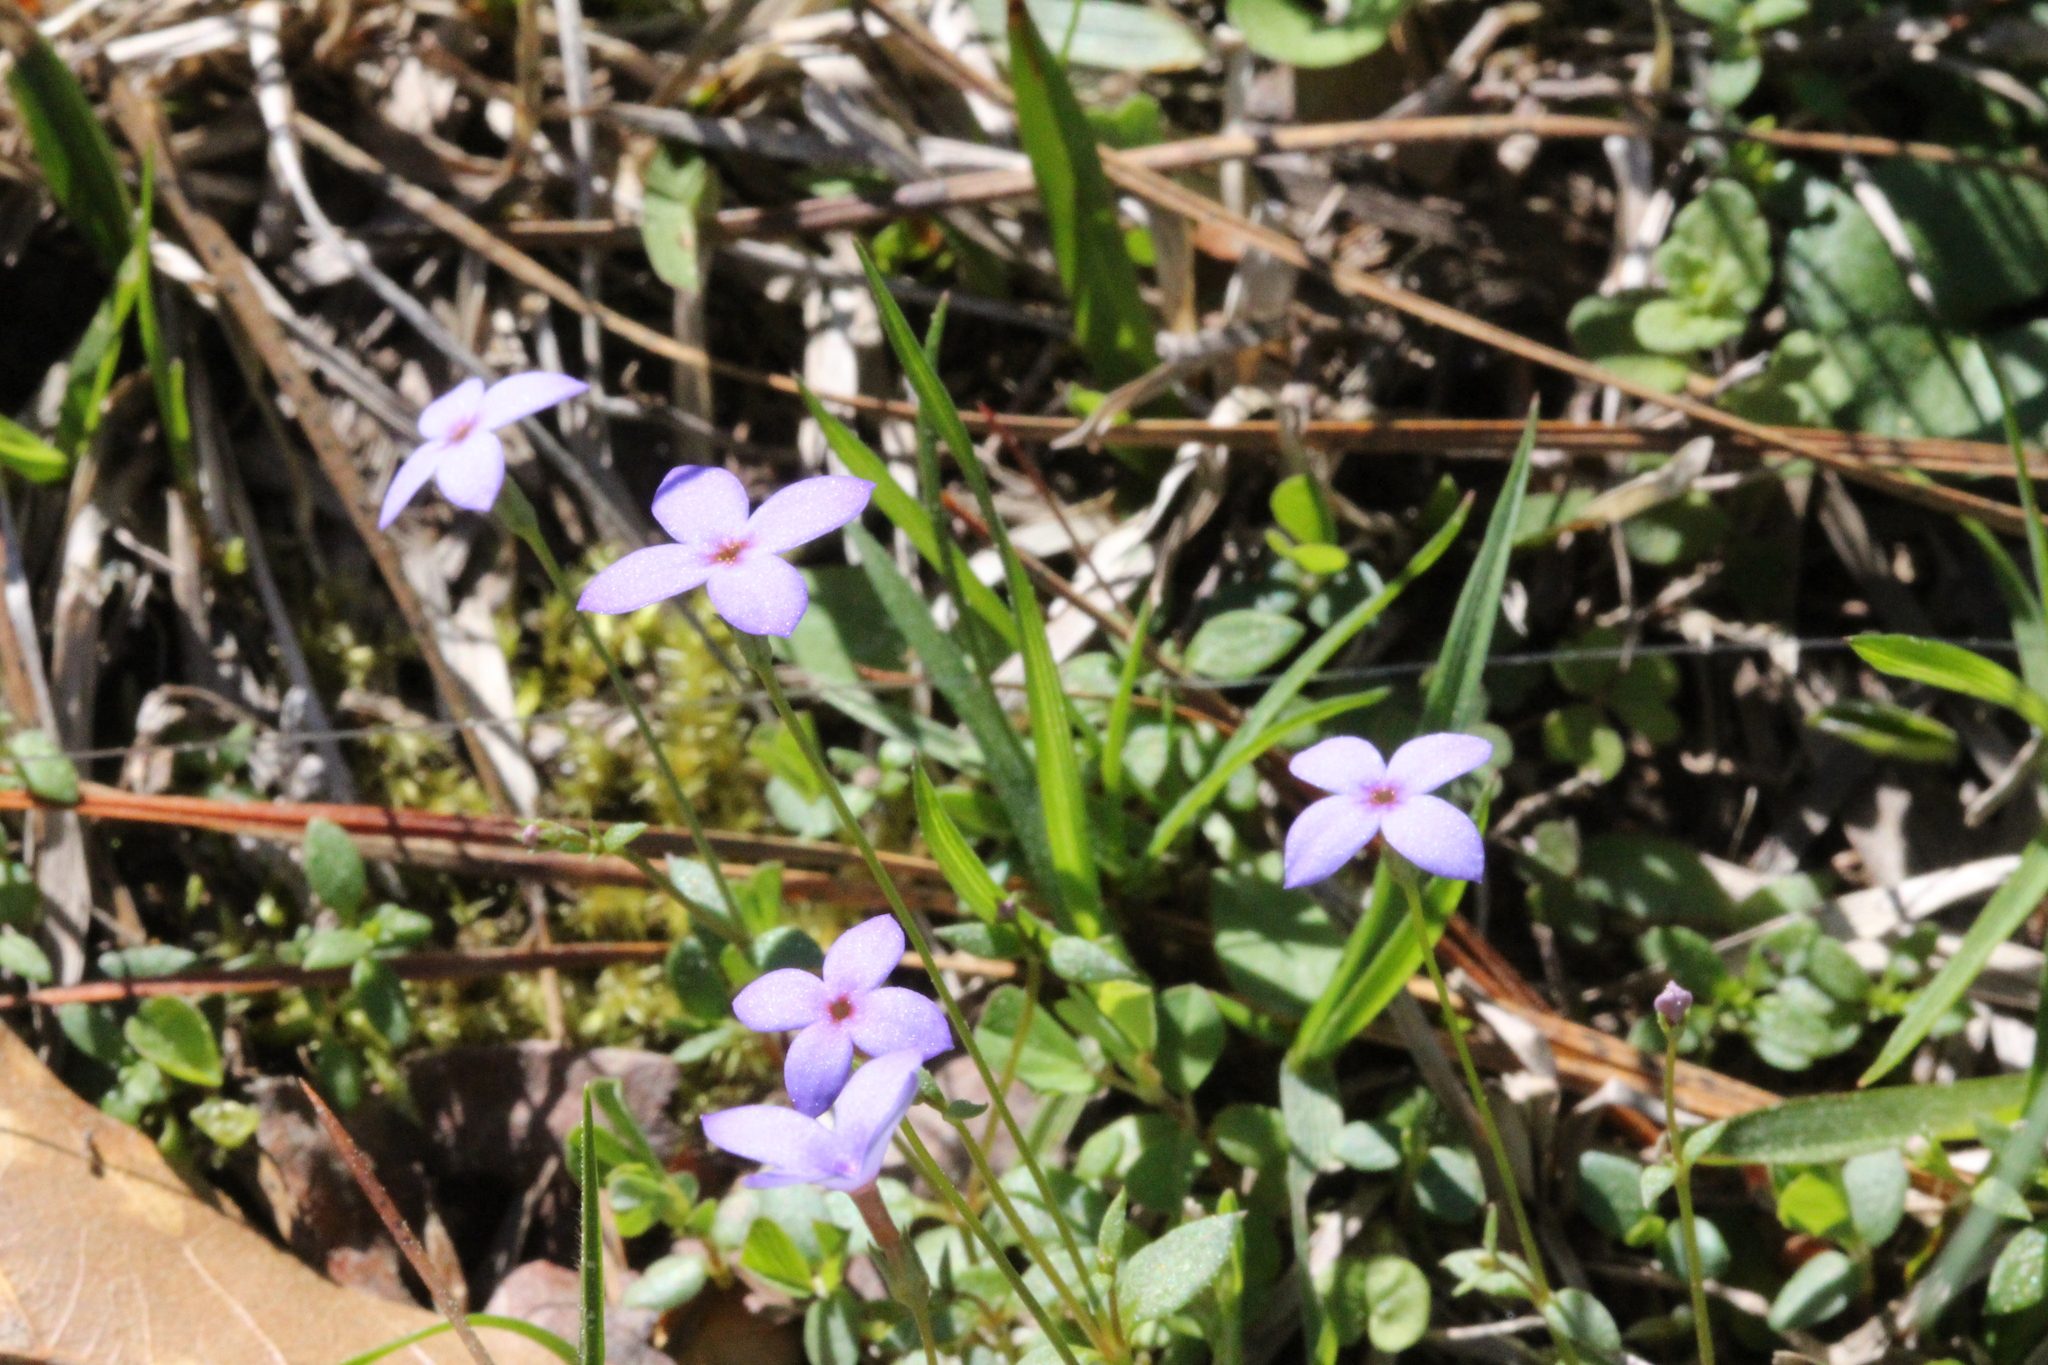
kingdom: Plantae
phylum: Tracheophyta
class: Magnoliopsida
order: Gentianales
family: Rubiaceae
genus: Houstonia
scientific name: Houstonia pusilla
